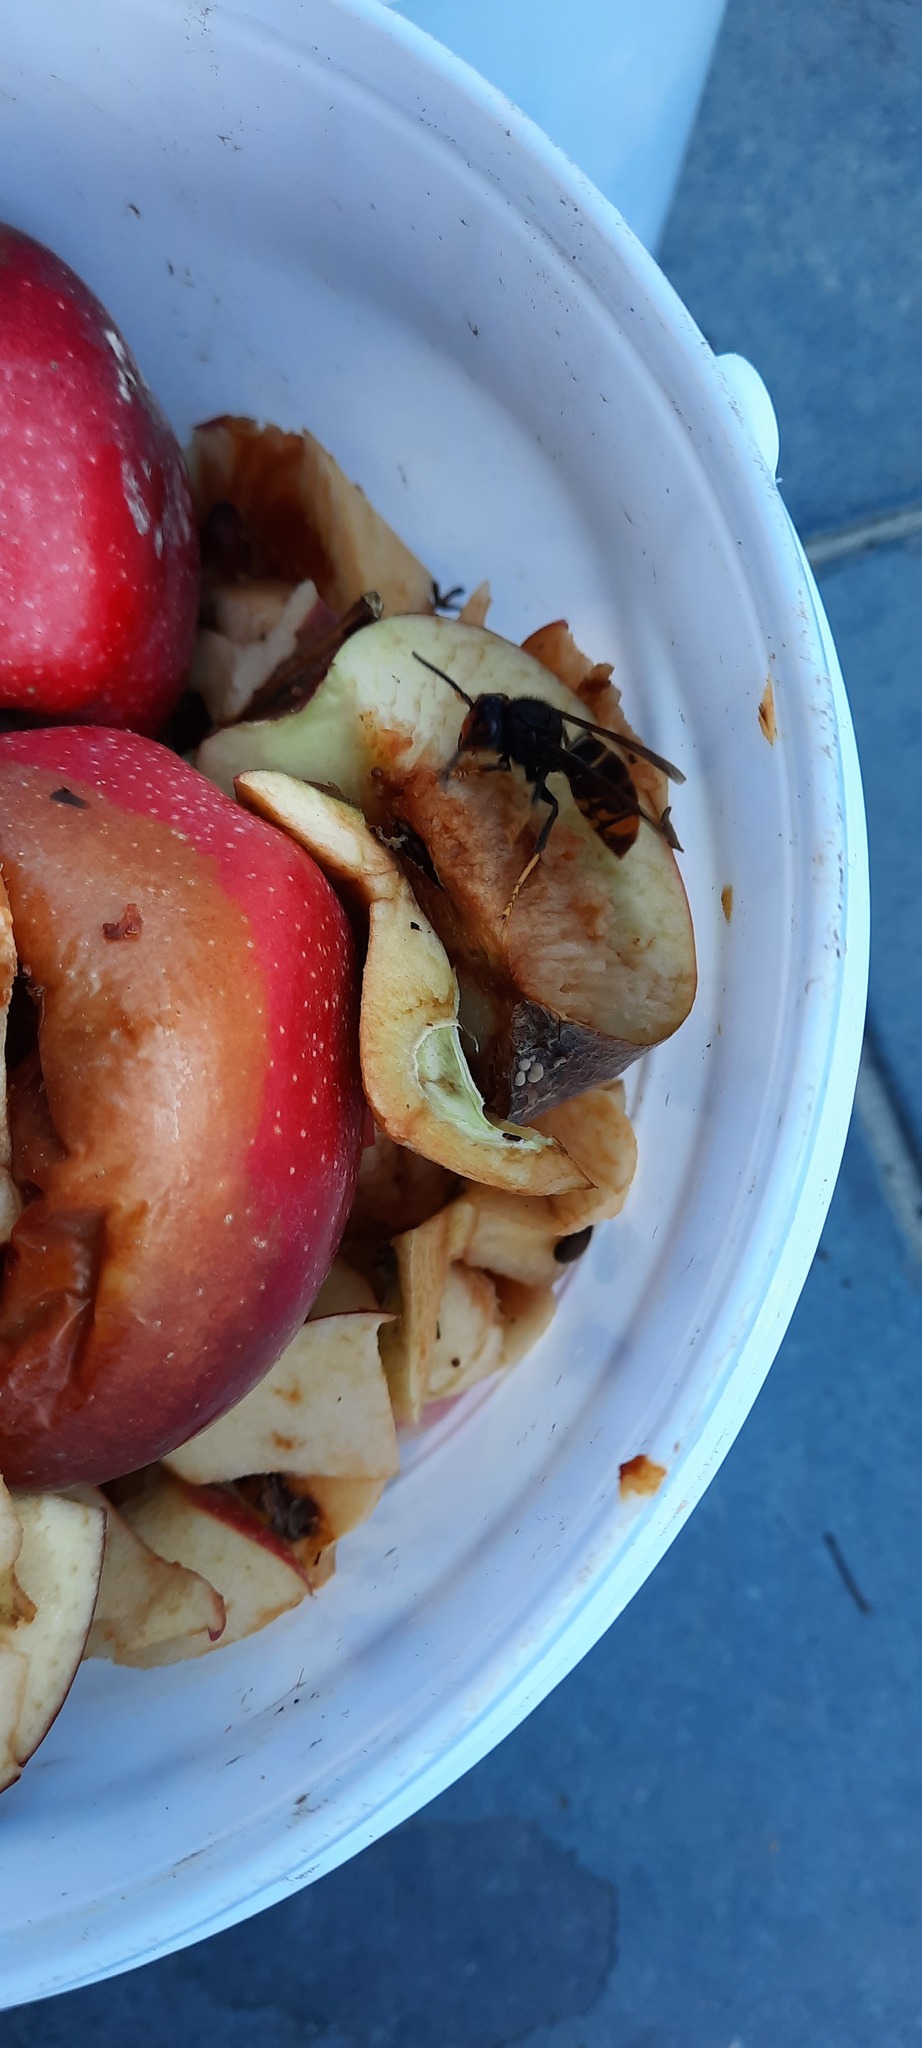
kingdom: Animalia
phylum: Arthropoda
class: Insecta
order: Hymenoptera
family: Vespidae
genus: Vespa
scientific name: Vespa velutina
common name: Asian hornet
